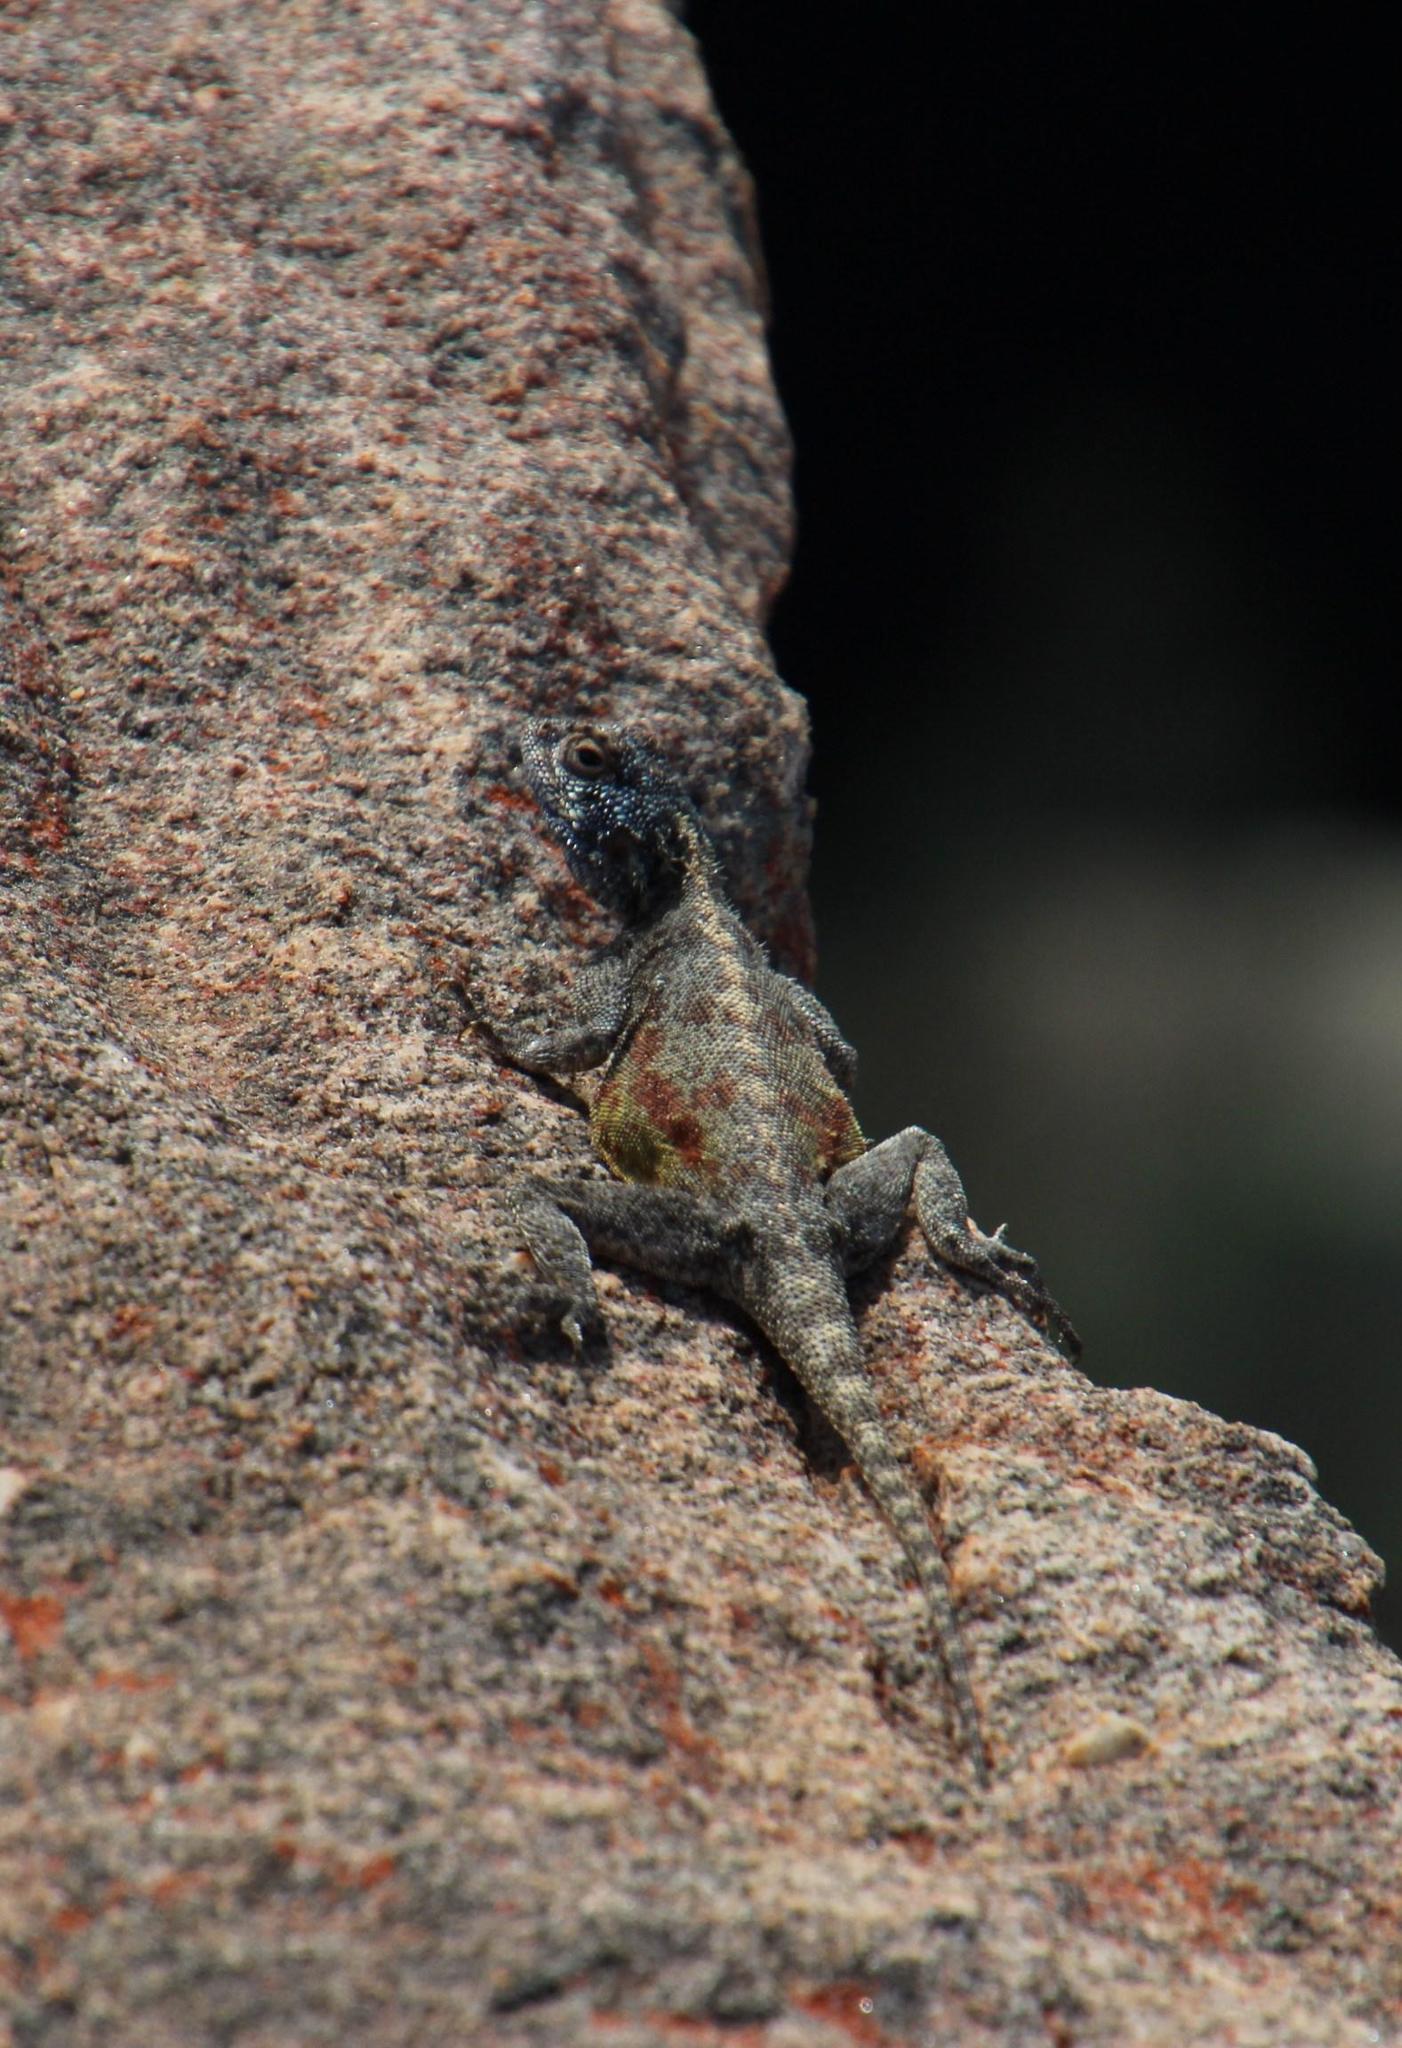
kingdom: Animalia
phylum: Chordata
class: Squamata
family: Agamidae
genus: Agama
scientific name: Agama atra
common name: Southern african rock agama
